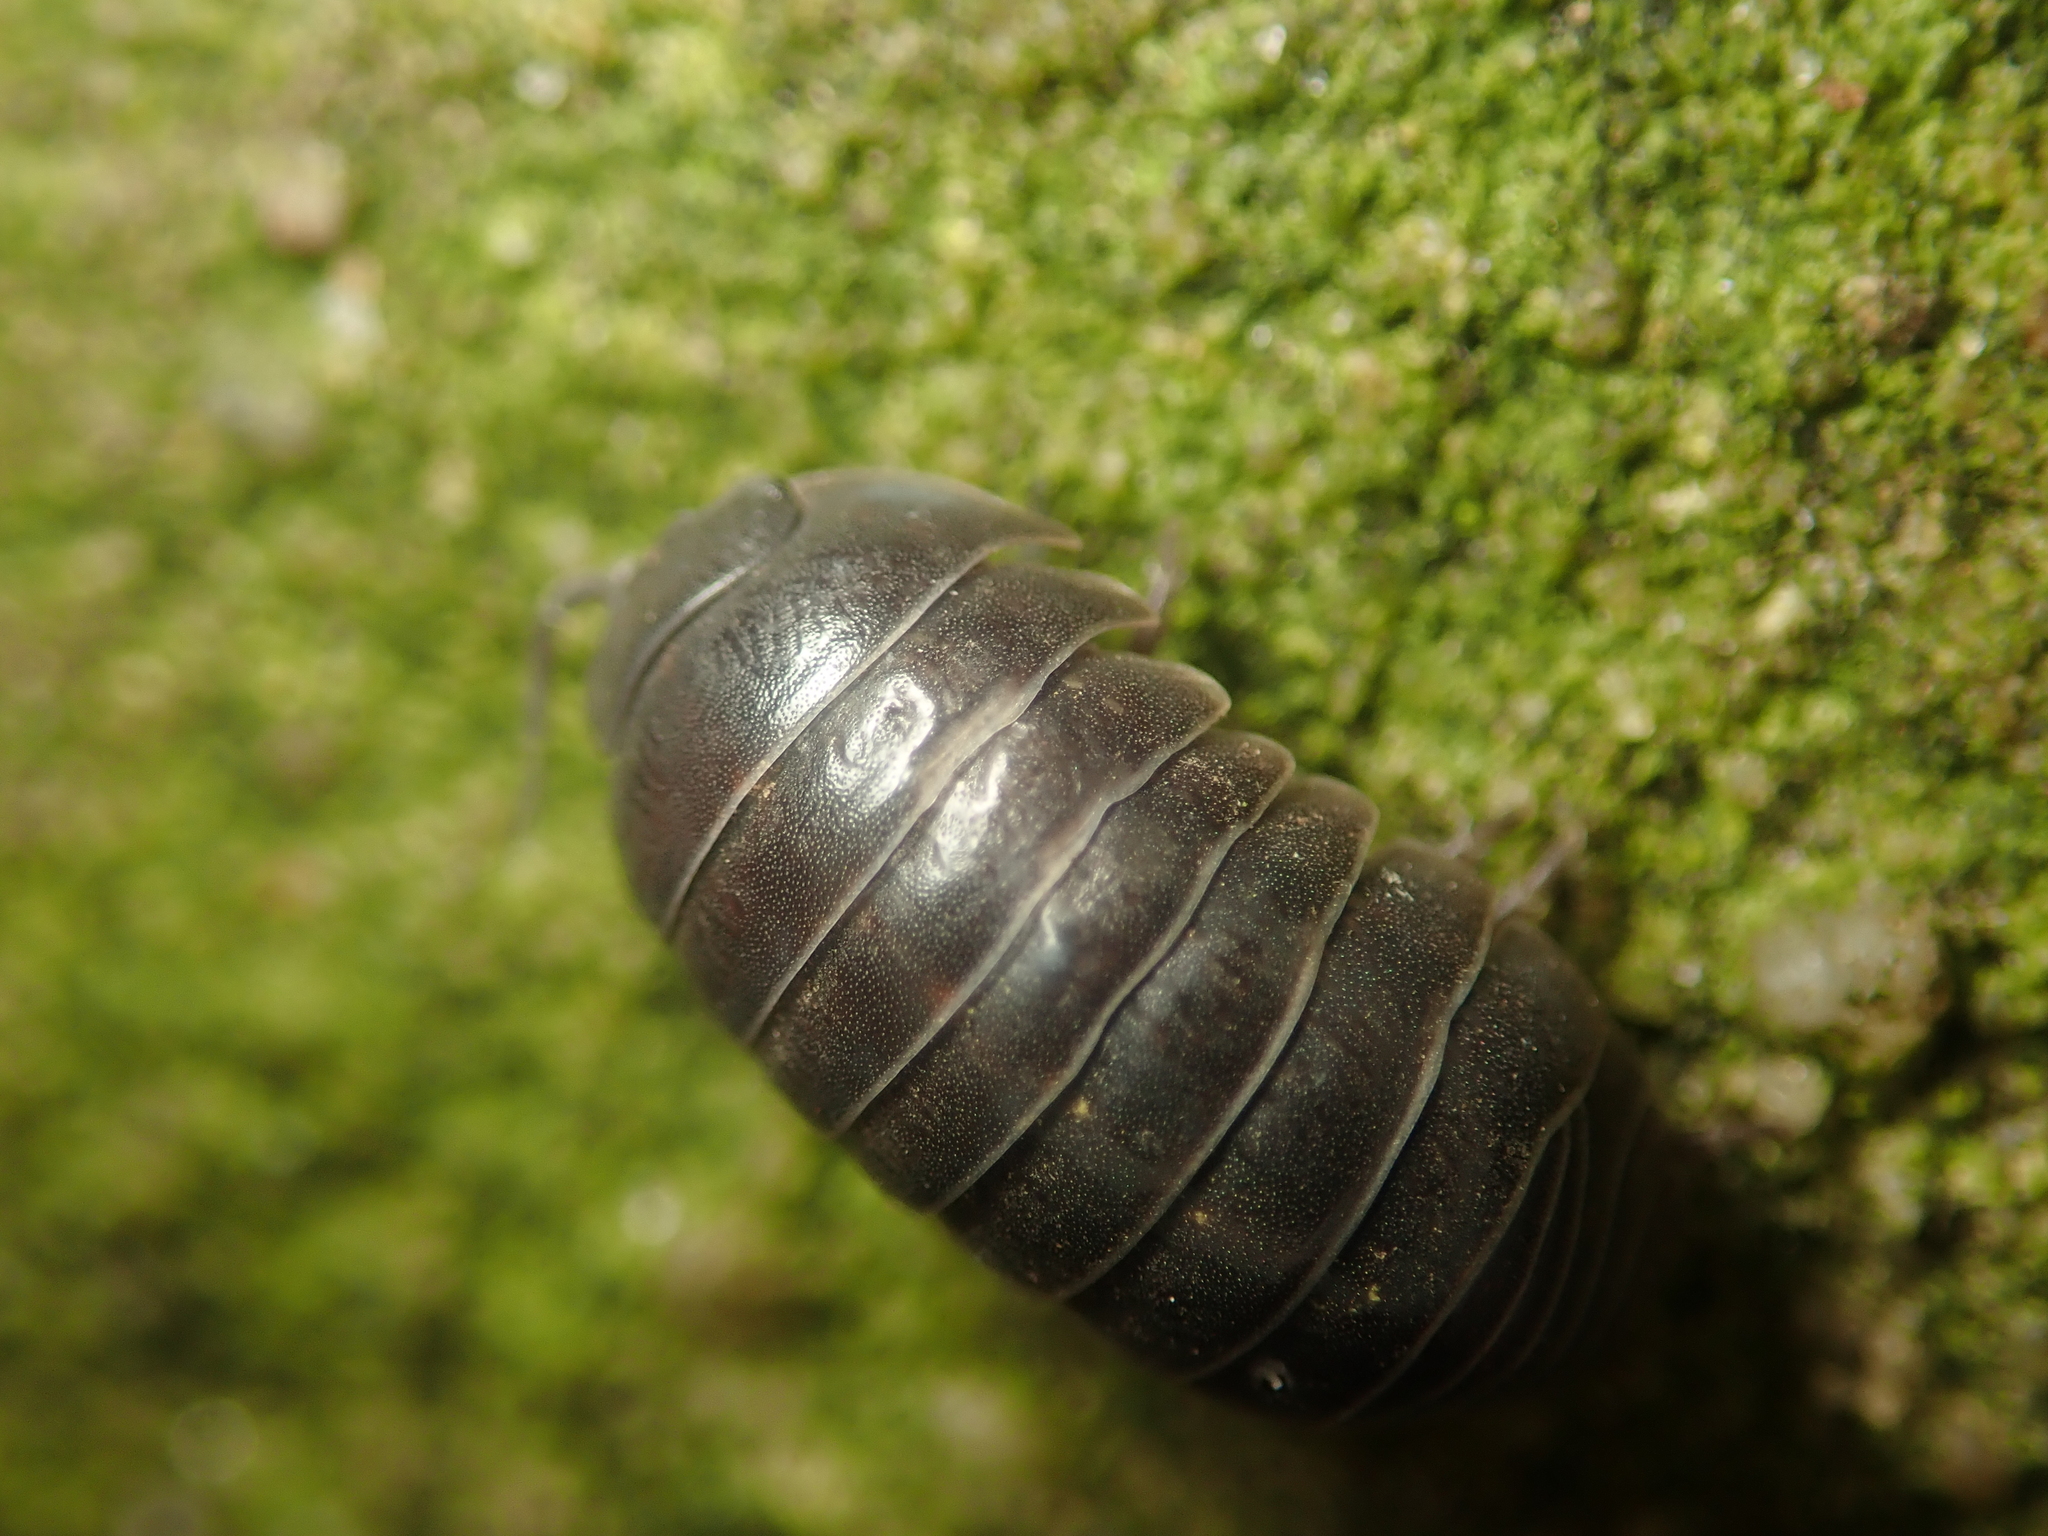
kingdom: Animalia
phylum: Arthropoda
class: Malacostraca
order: Isopoda
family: Armadillidiidae
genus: Armadillidium
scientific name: Armadillidium vulgare
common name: Common pill woodlouse
